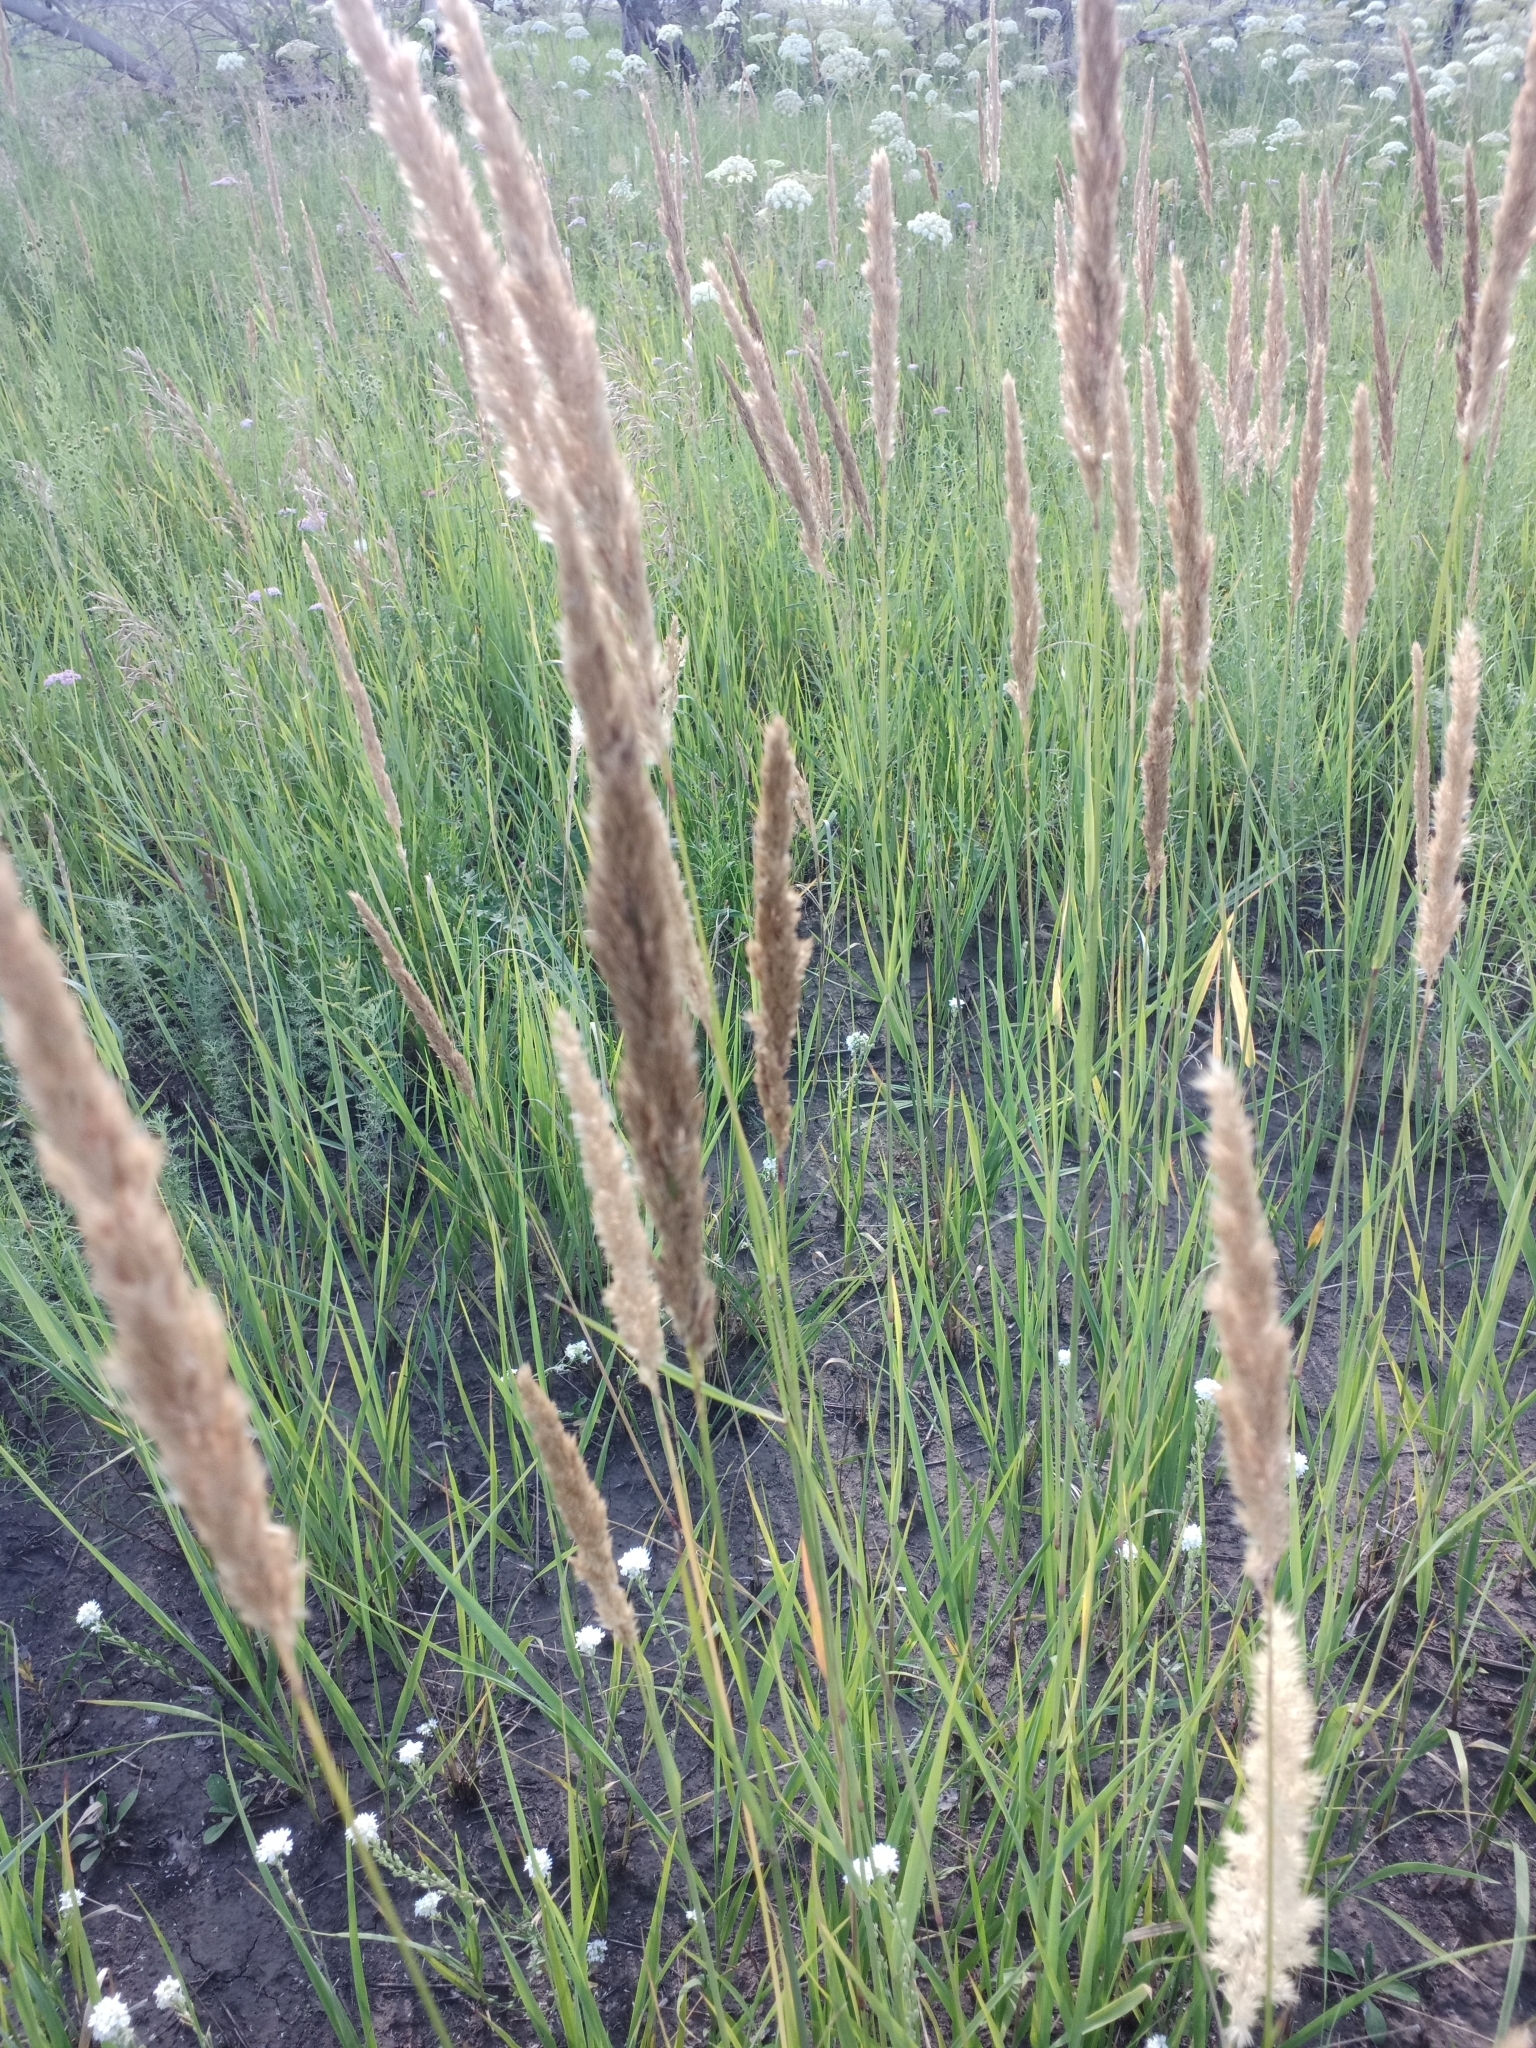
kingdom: Plantae
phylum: Tracheophyta
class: Liliopsida
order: Poales
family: Poaceae
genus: Calamagrostis
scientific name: Calamagrostis epigejos
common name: Wood small-reed
